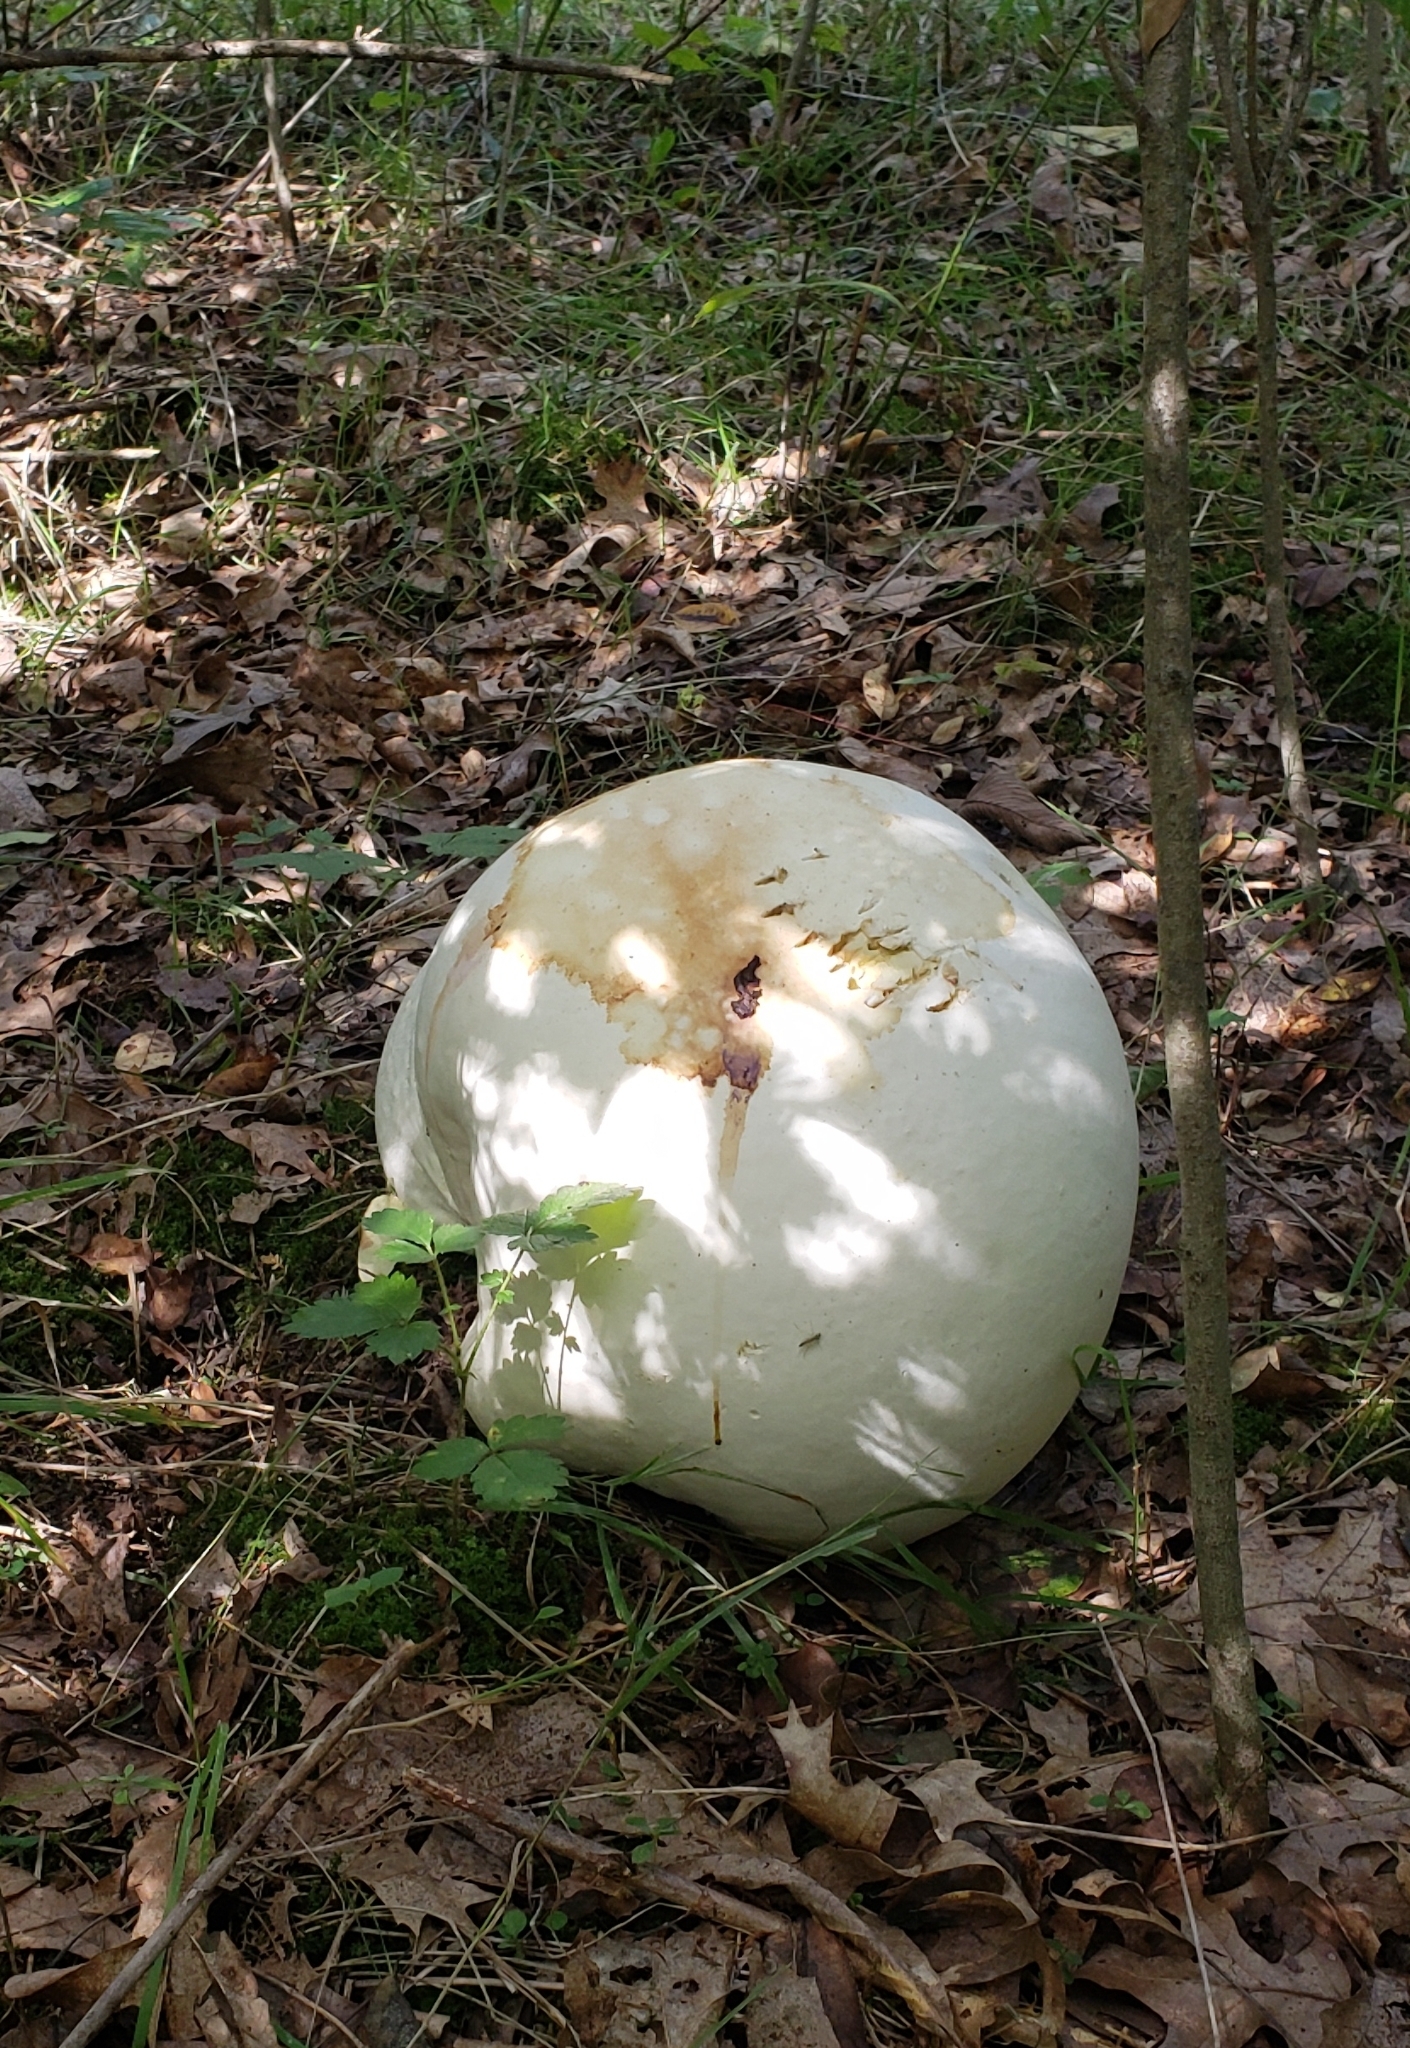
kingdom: Fungi
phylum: Basidiomycota
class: Agaricomycetes
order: Agaricales
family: Lycoperdaceae
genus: Calvatia
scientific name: Calvatia gigantea
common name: Giant puffball
